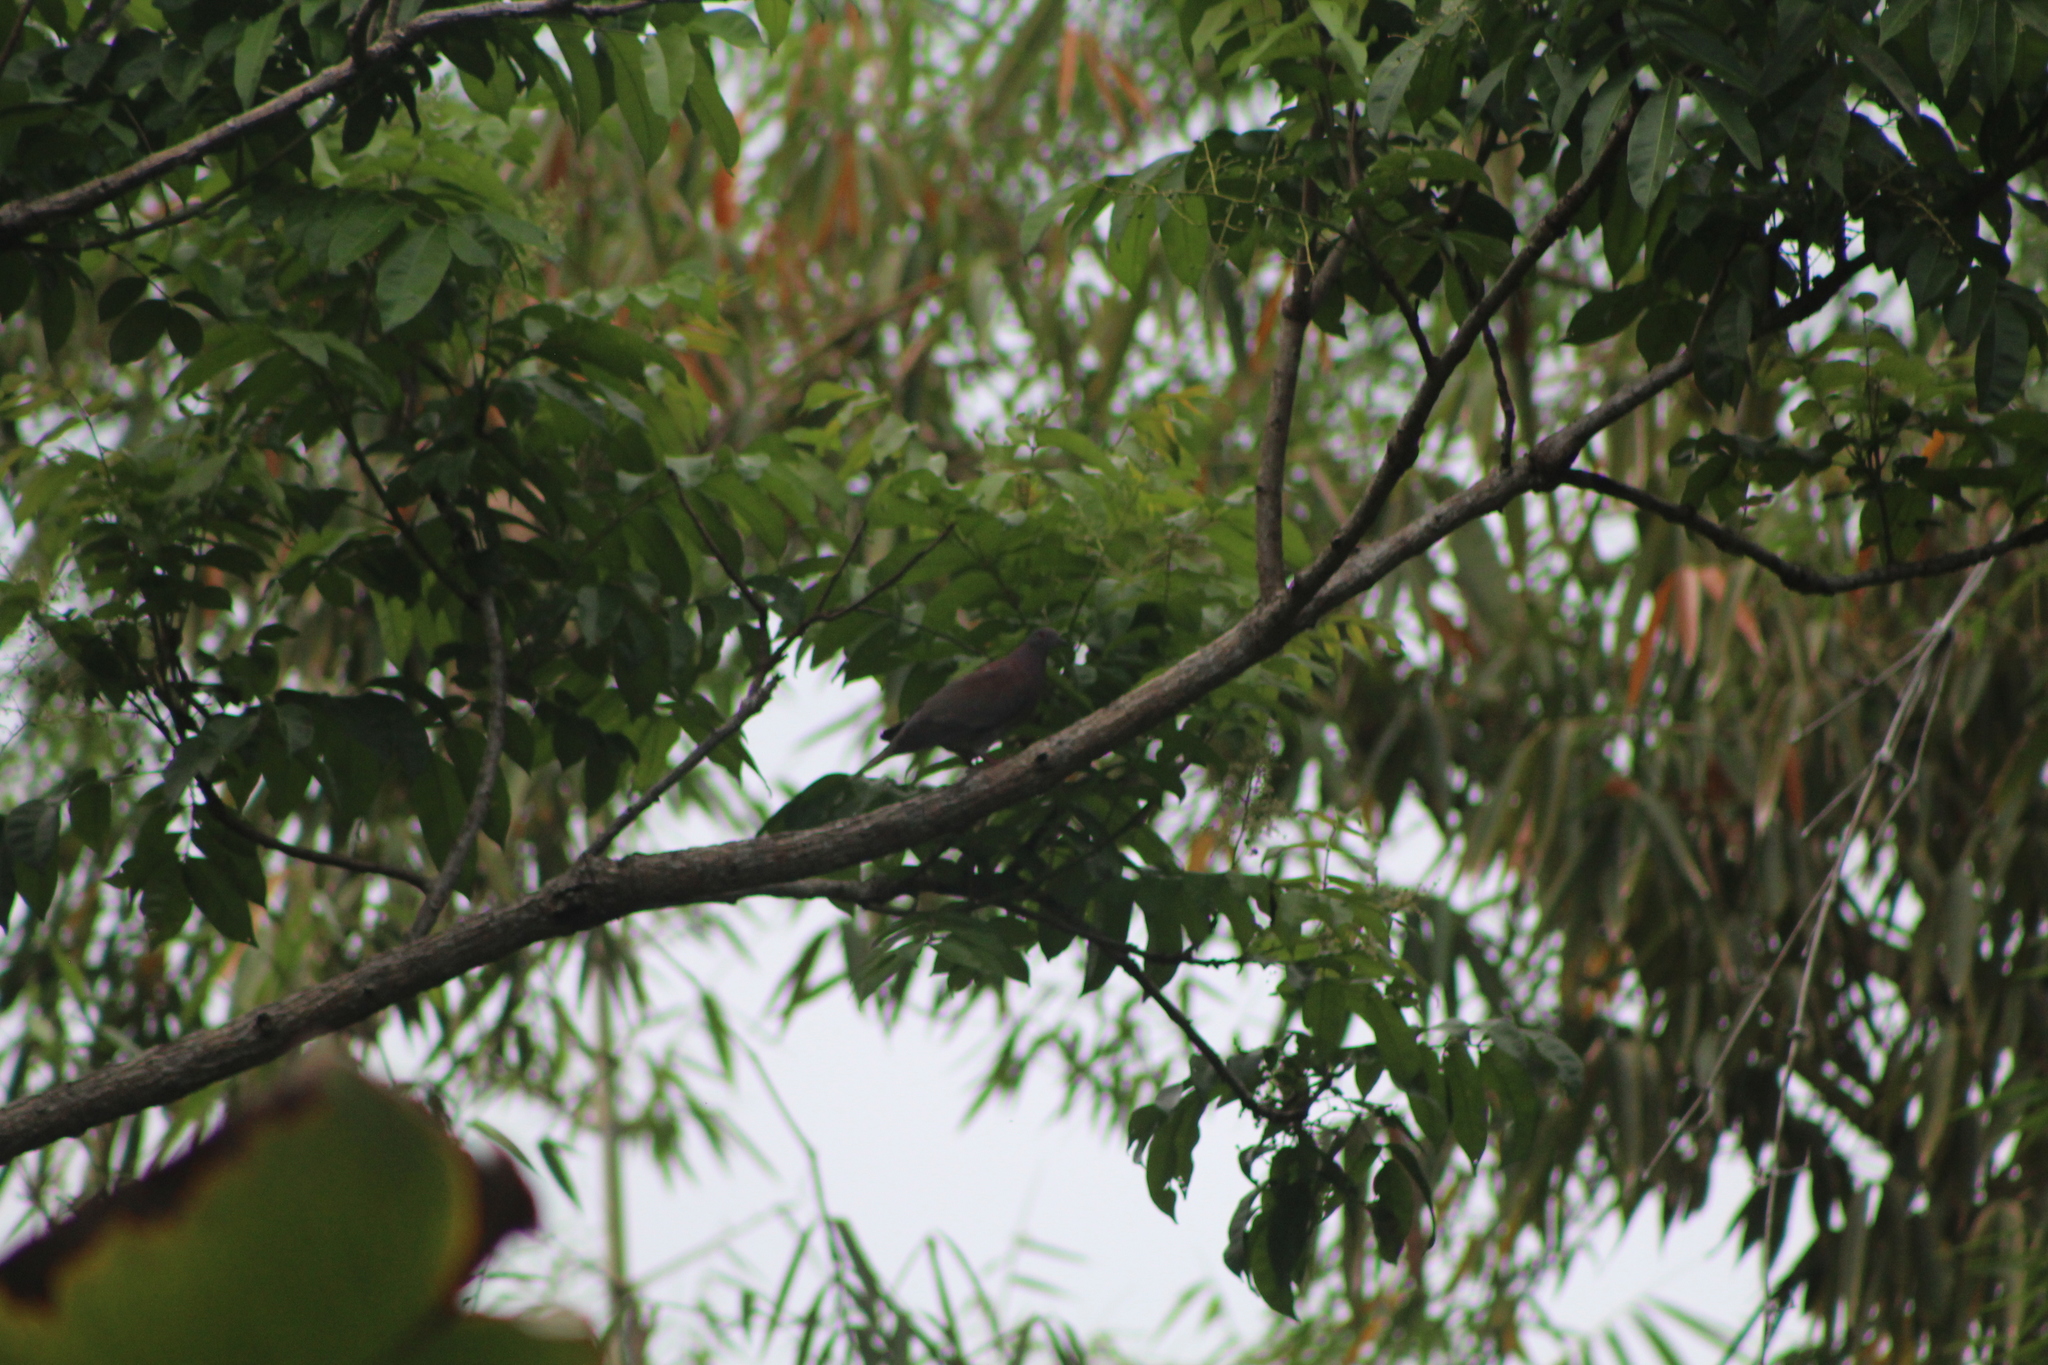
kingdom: Animalia
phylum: Chordata
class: Aves
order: Columbiformes
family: Columbidae
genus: Patagioenas
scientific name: Patagioenas cayennensis
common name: Pale-vented pigeon
